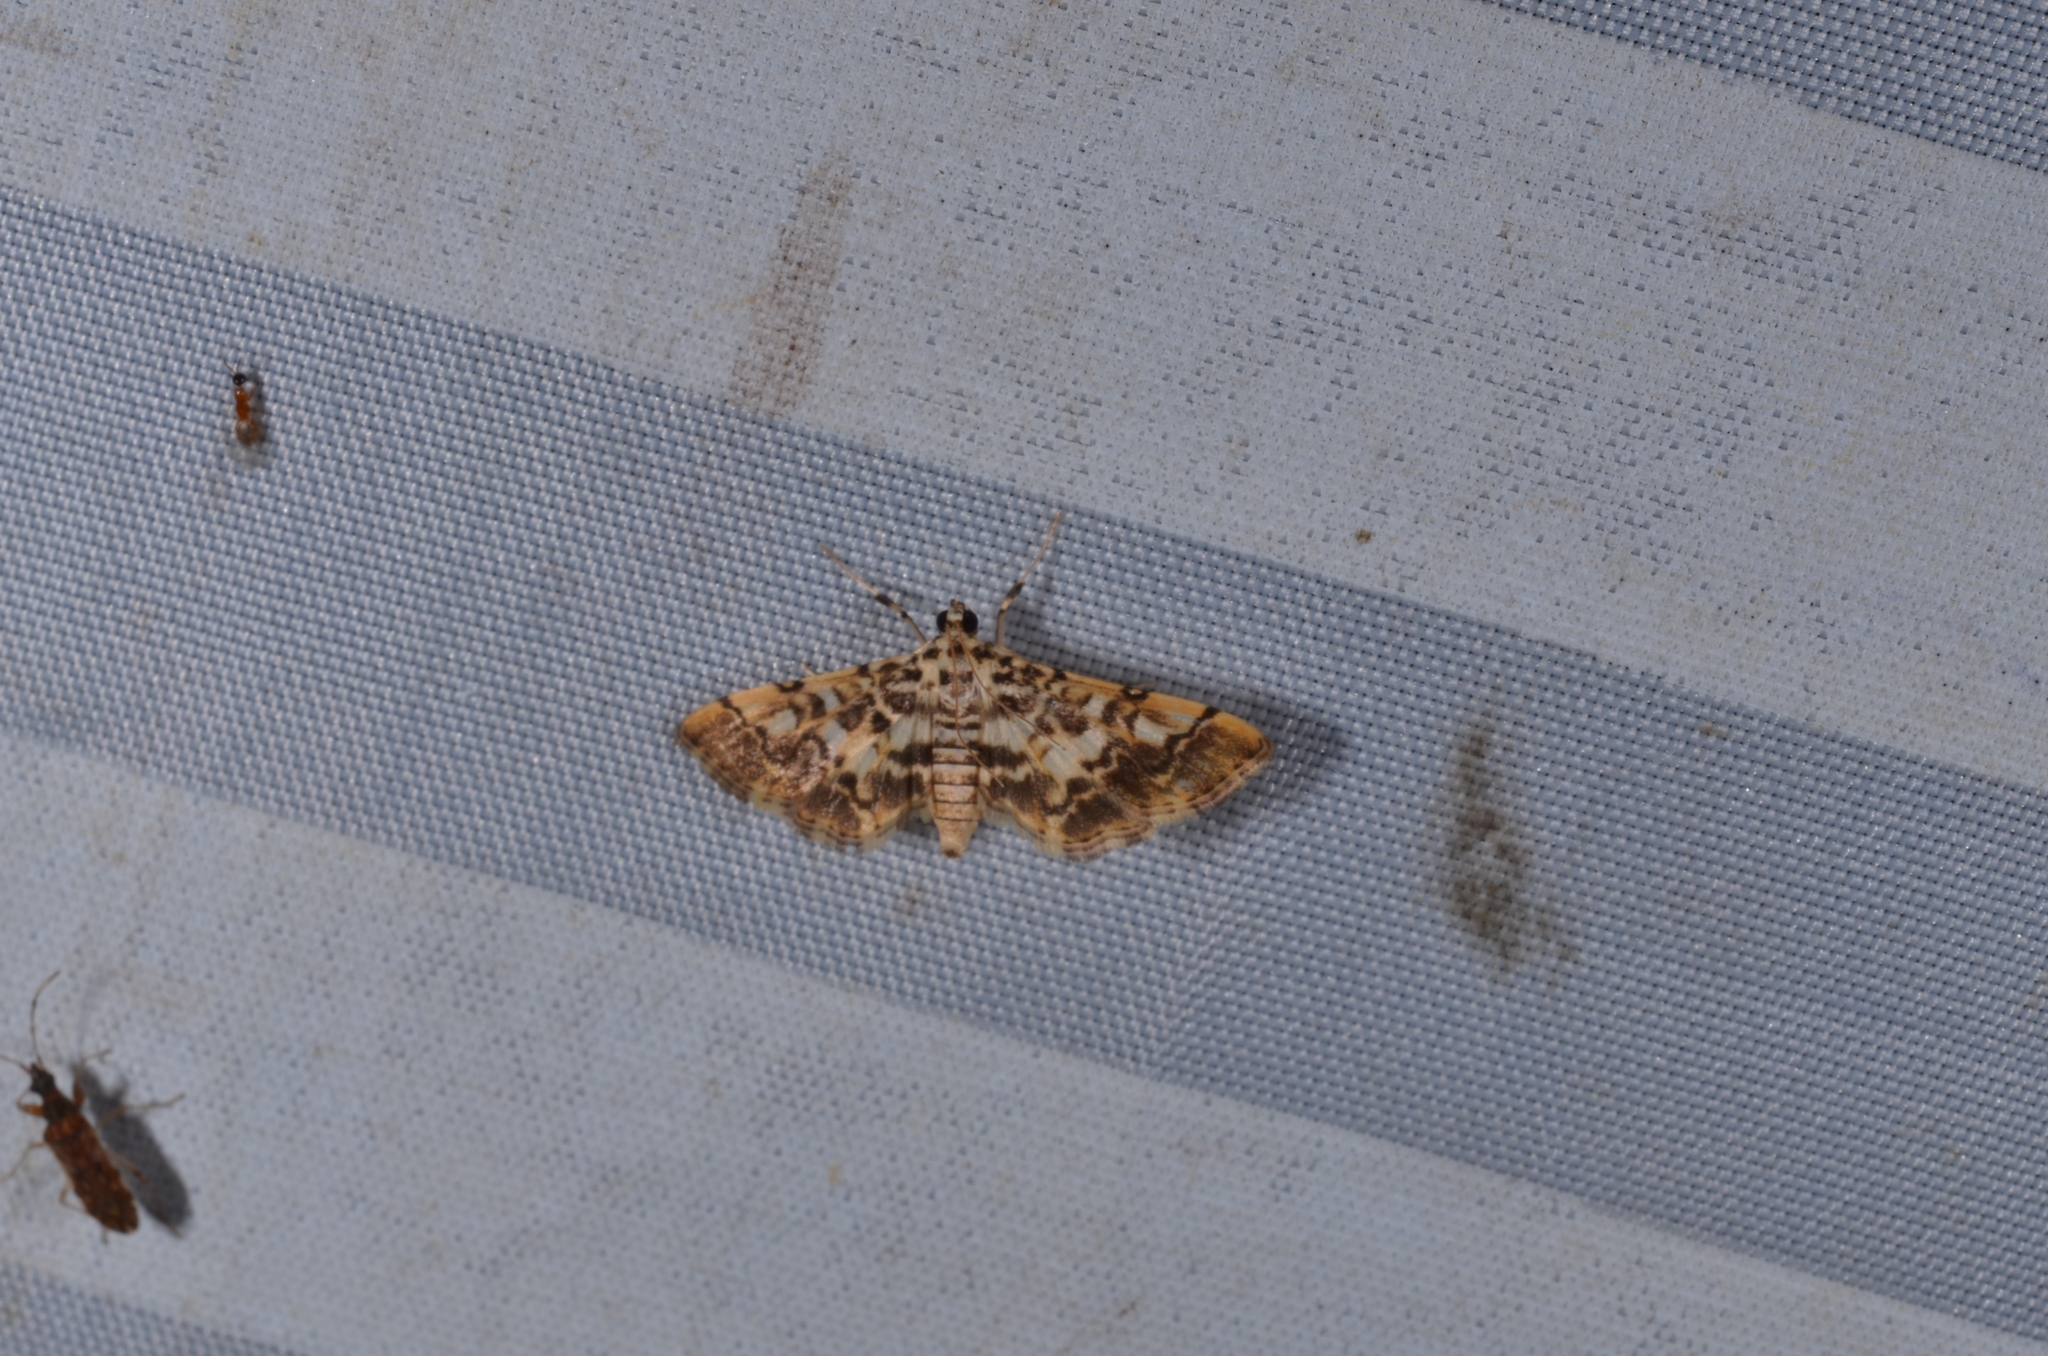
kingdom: Animalia
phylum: Arthropoda
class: Insecta
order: Lepidoptera
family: Crambidae
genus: Lamprosema
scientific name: Lamprosema commixta
